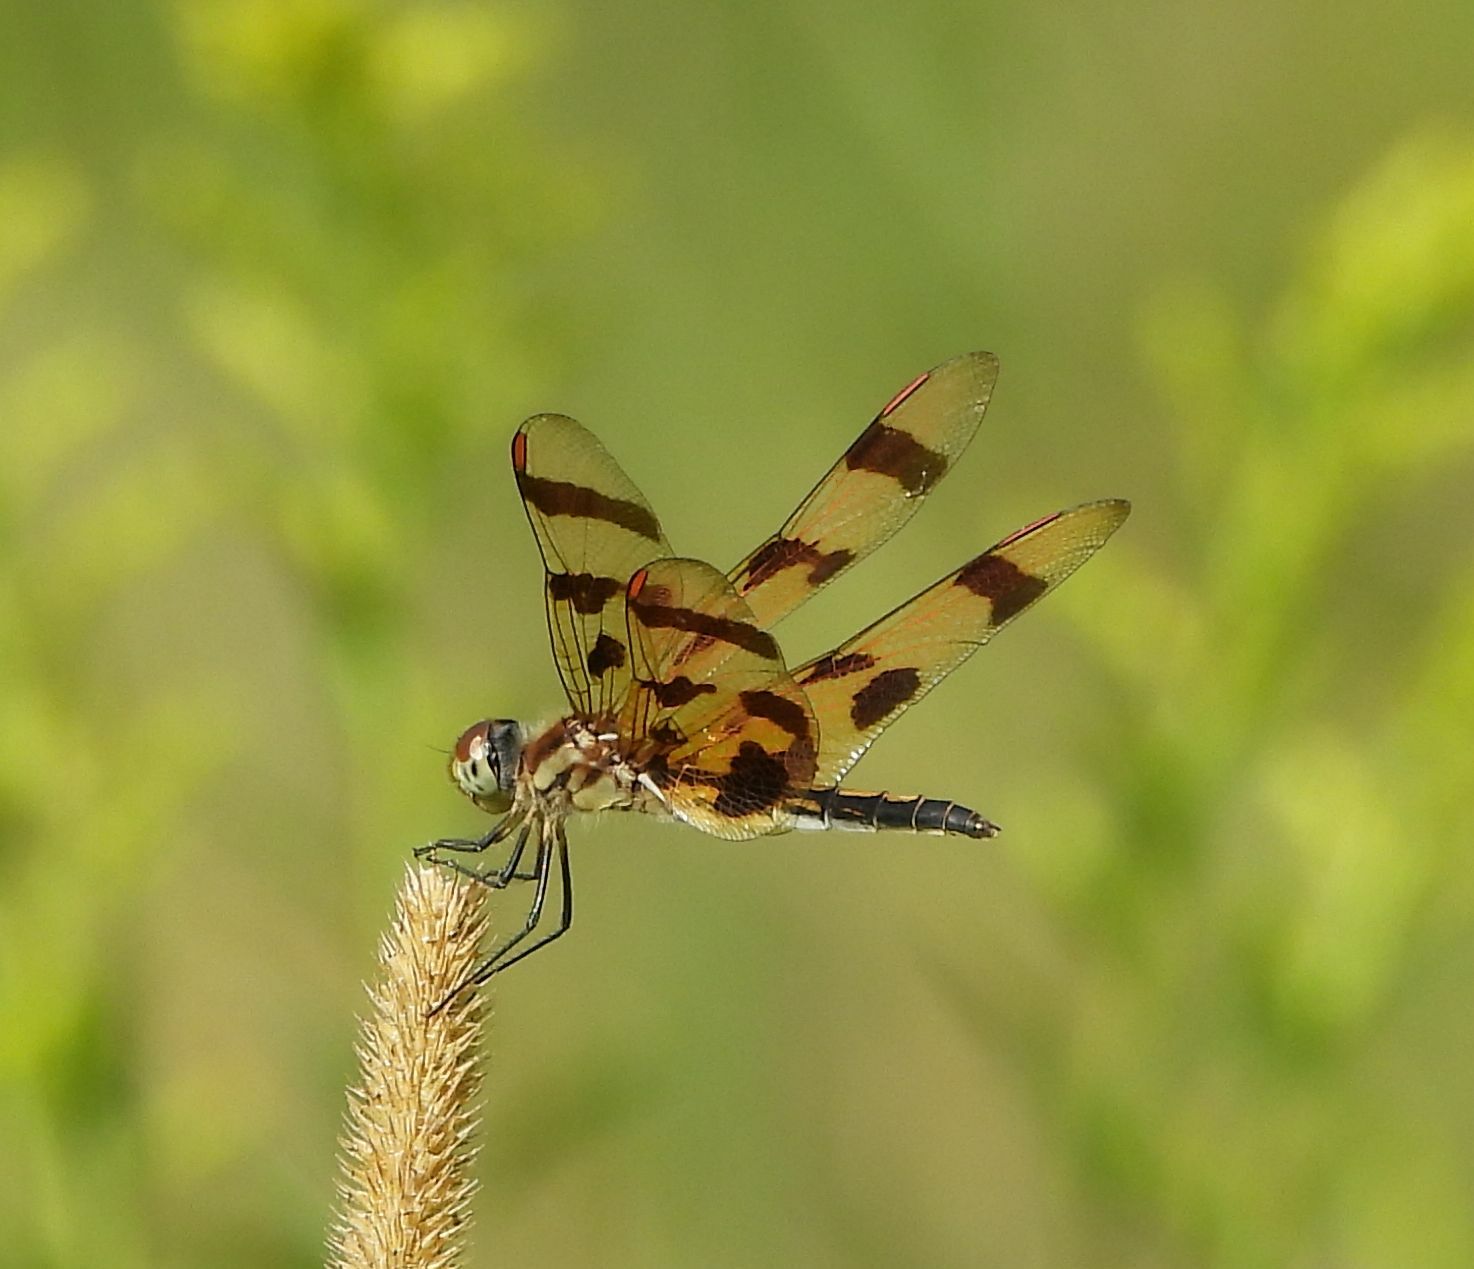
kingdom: Animalia
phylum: Arthropoda
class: Insecta
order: Odonata
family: Libellulidae
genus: Celithemis
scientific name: Celithemis eponina
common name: Halloween pennant
